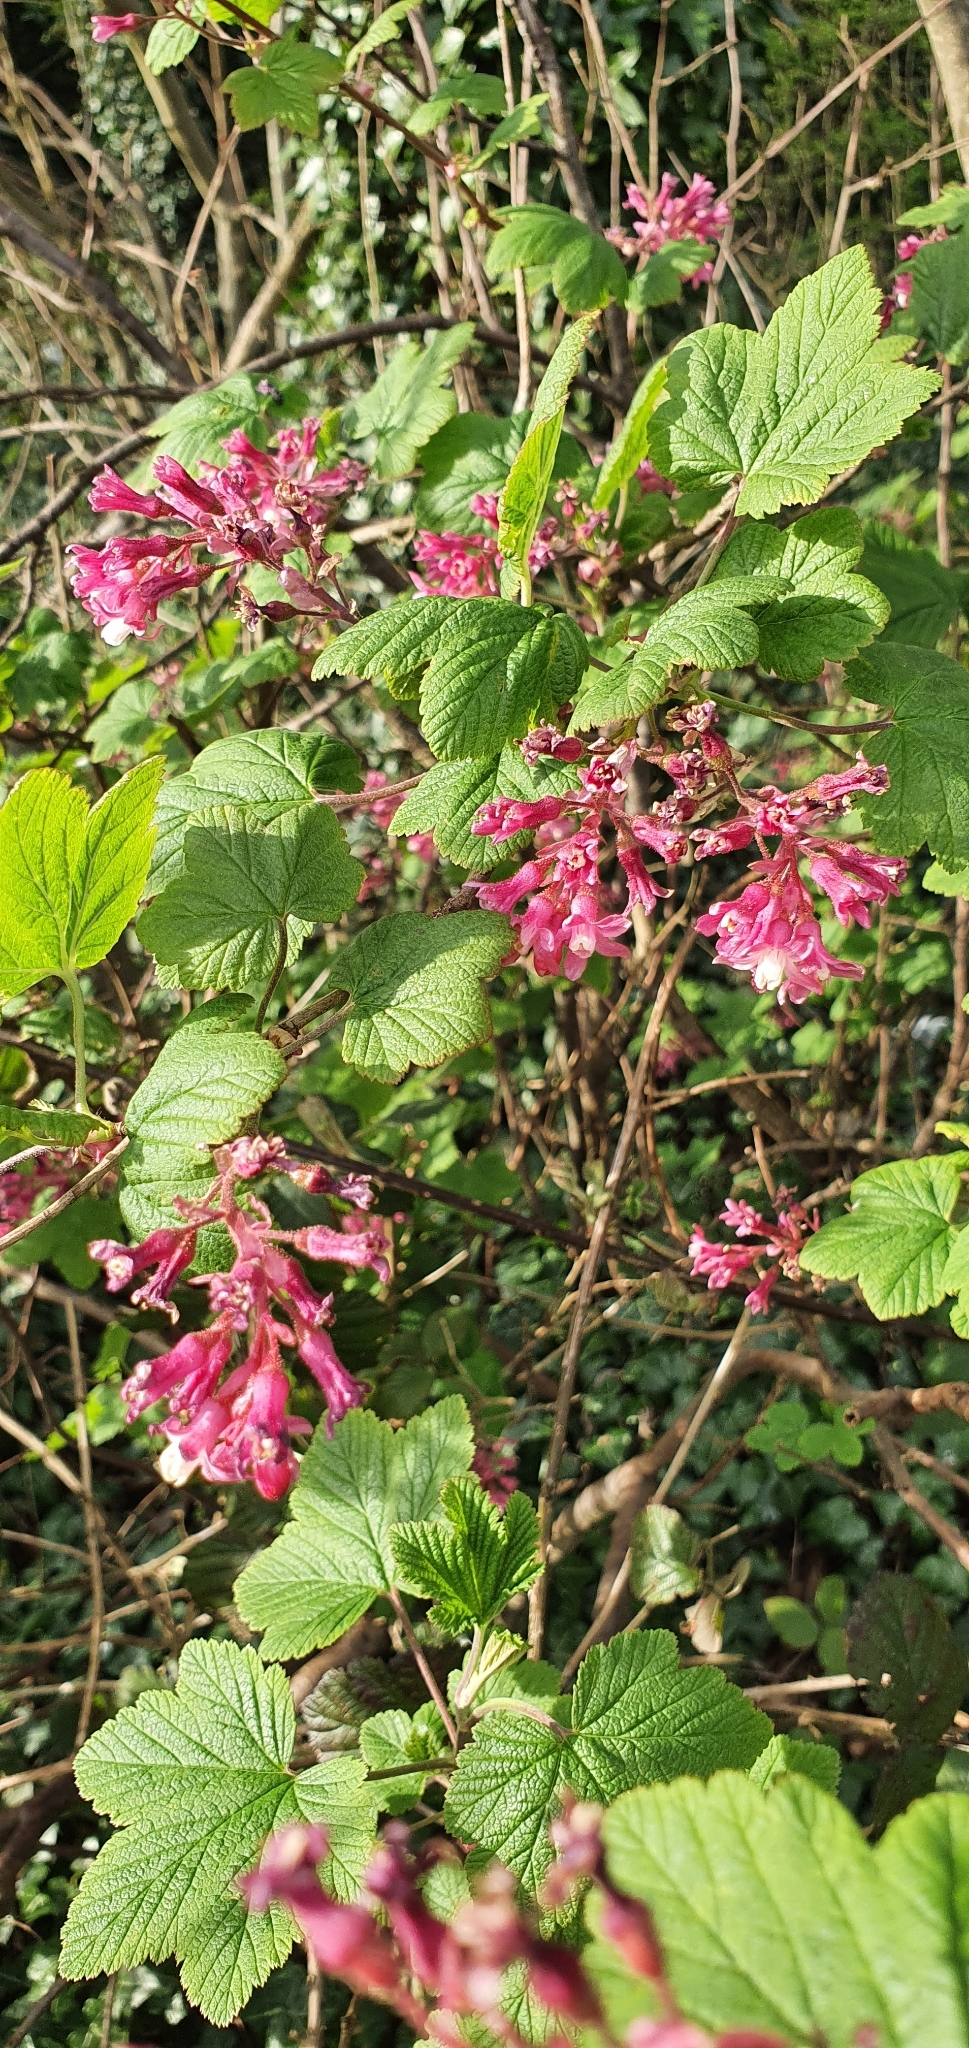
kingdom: Plantae
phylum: Tracheophyta
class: Magnoliopsida
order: Saxifragales
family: Grossulariaceae
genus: Ribes
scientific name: Ribes sanguineum
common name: Flowering currant
